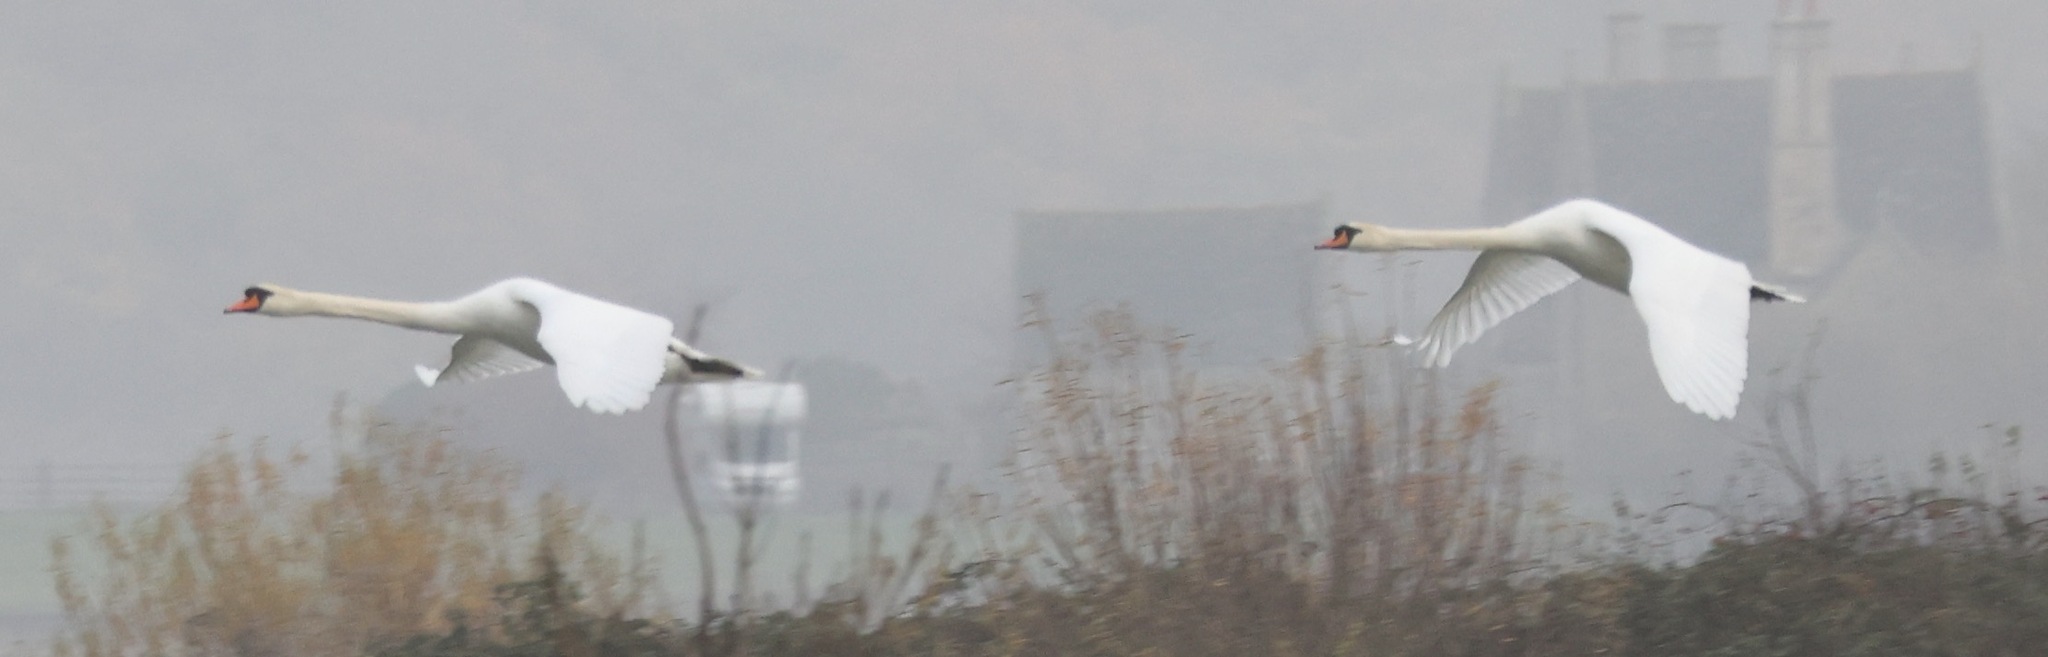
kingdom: Animalia
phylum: Chordata
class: Aves
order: Anseriformes
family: Anatidae
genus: Cygnus
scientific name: Cygnus olor
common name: Mute swan
